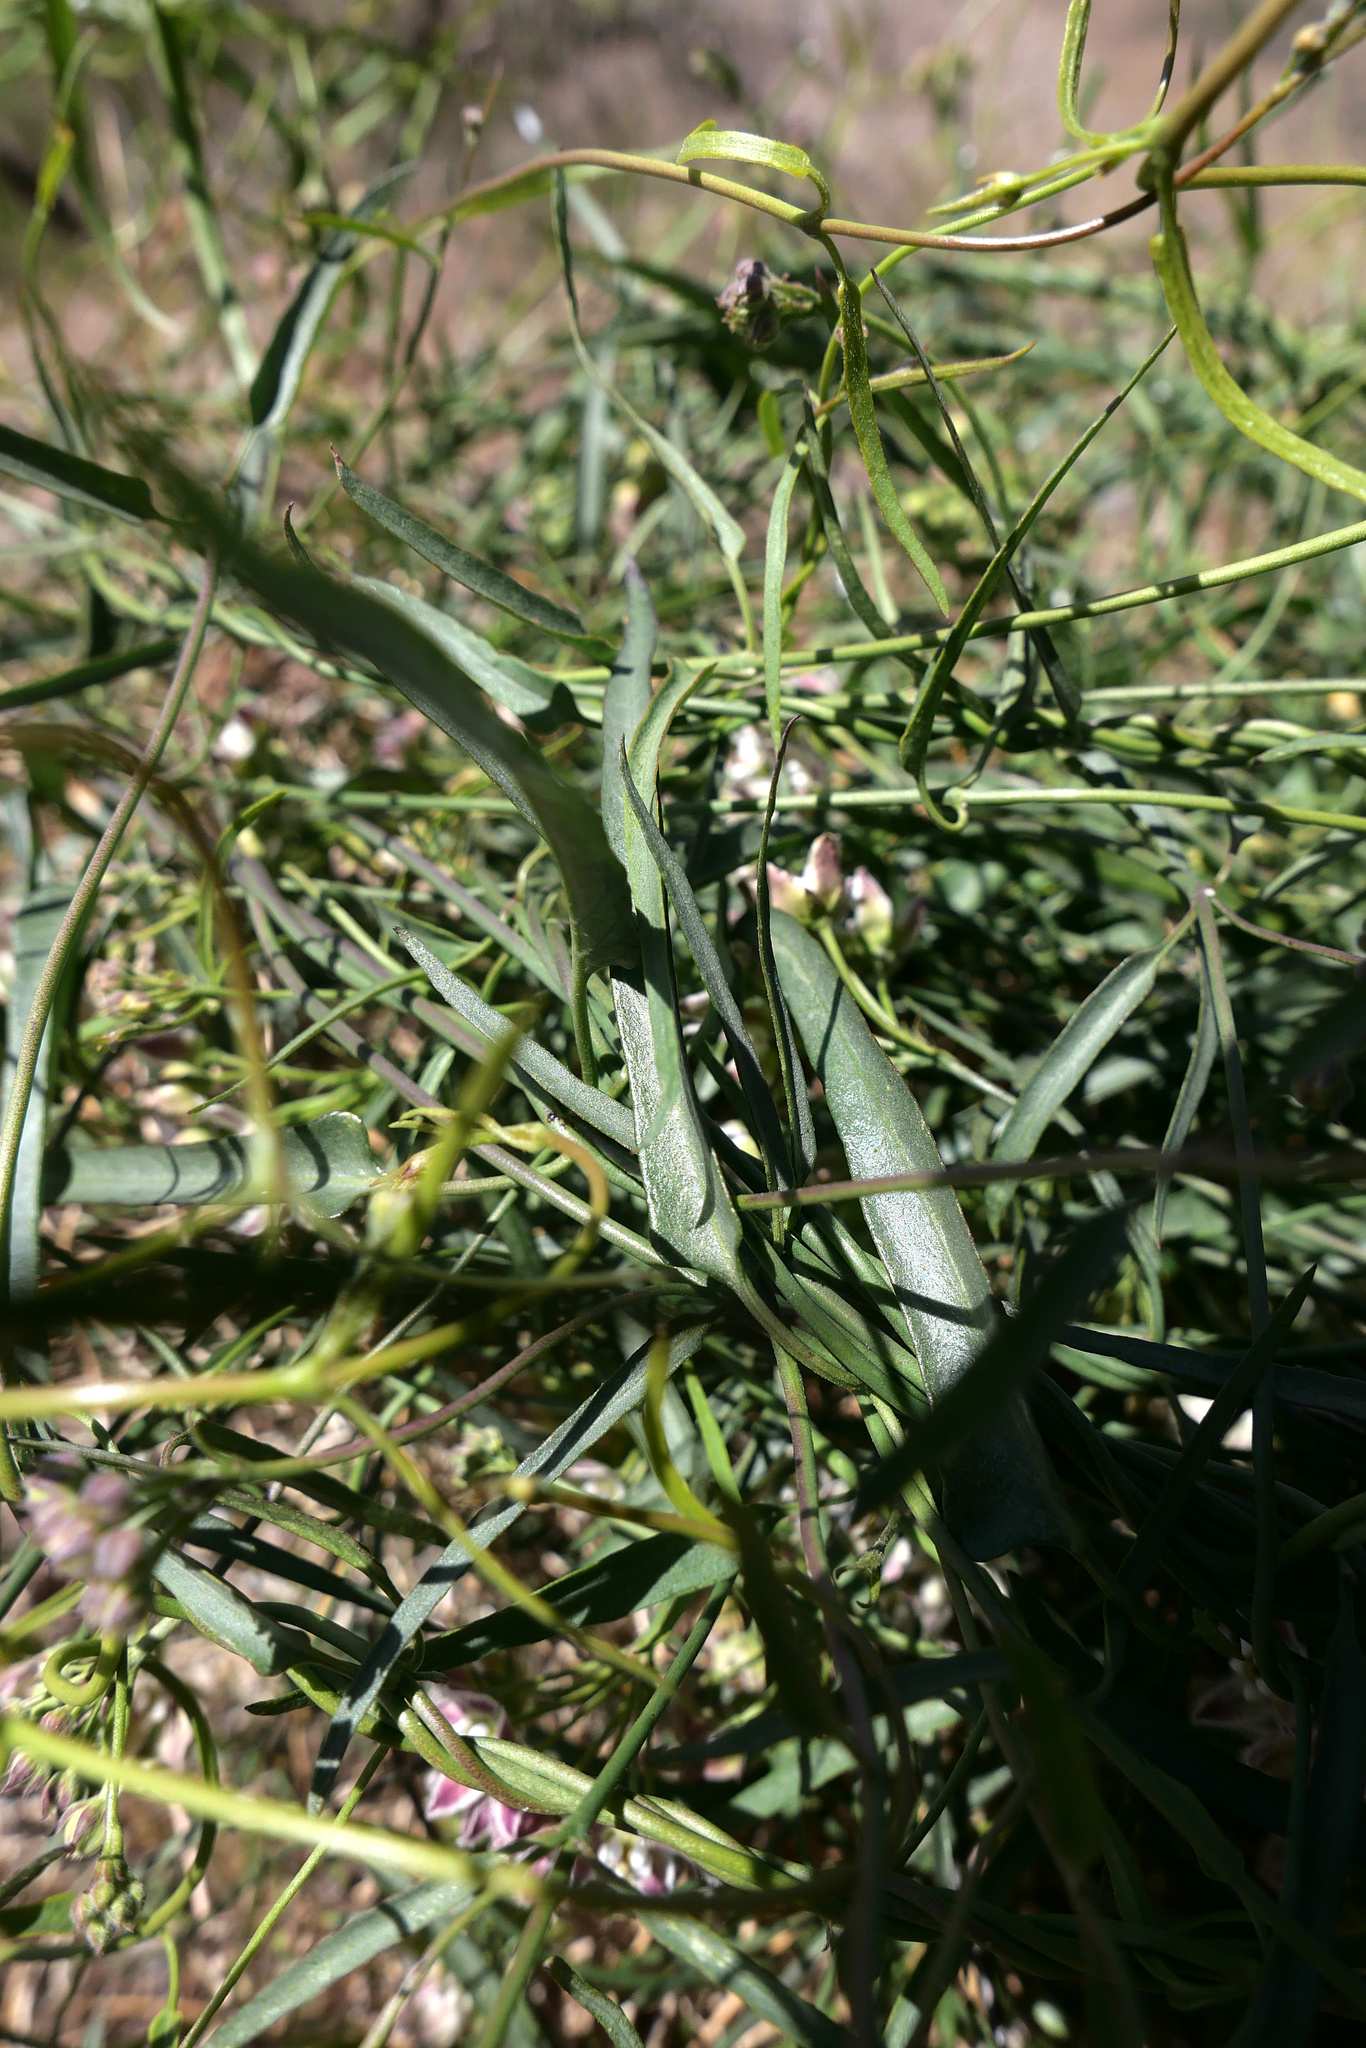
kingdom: Plantae
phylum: Tracheophyta
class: Magnoliopsida
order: Gentianales
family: Apocynaceae
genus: Funastrum
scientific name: Funastrum heterophyllum
